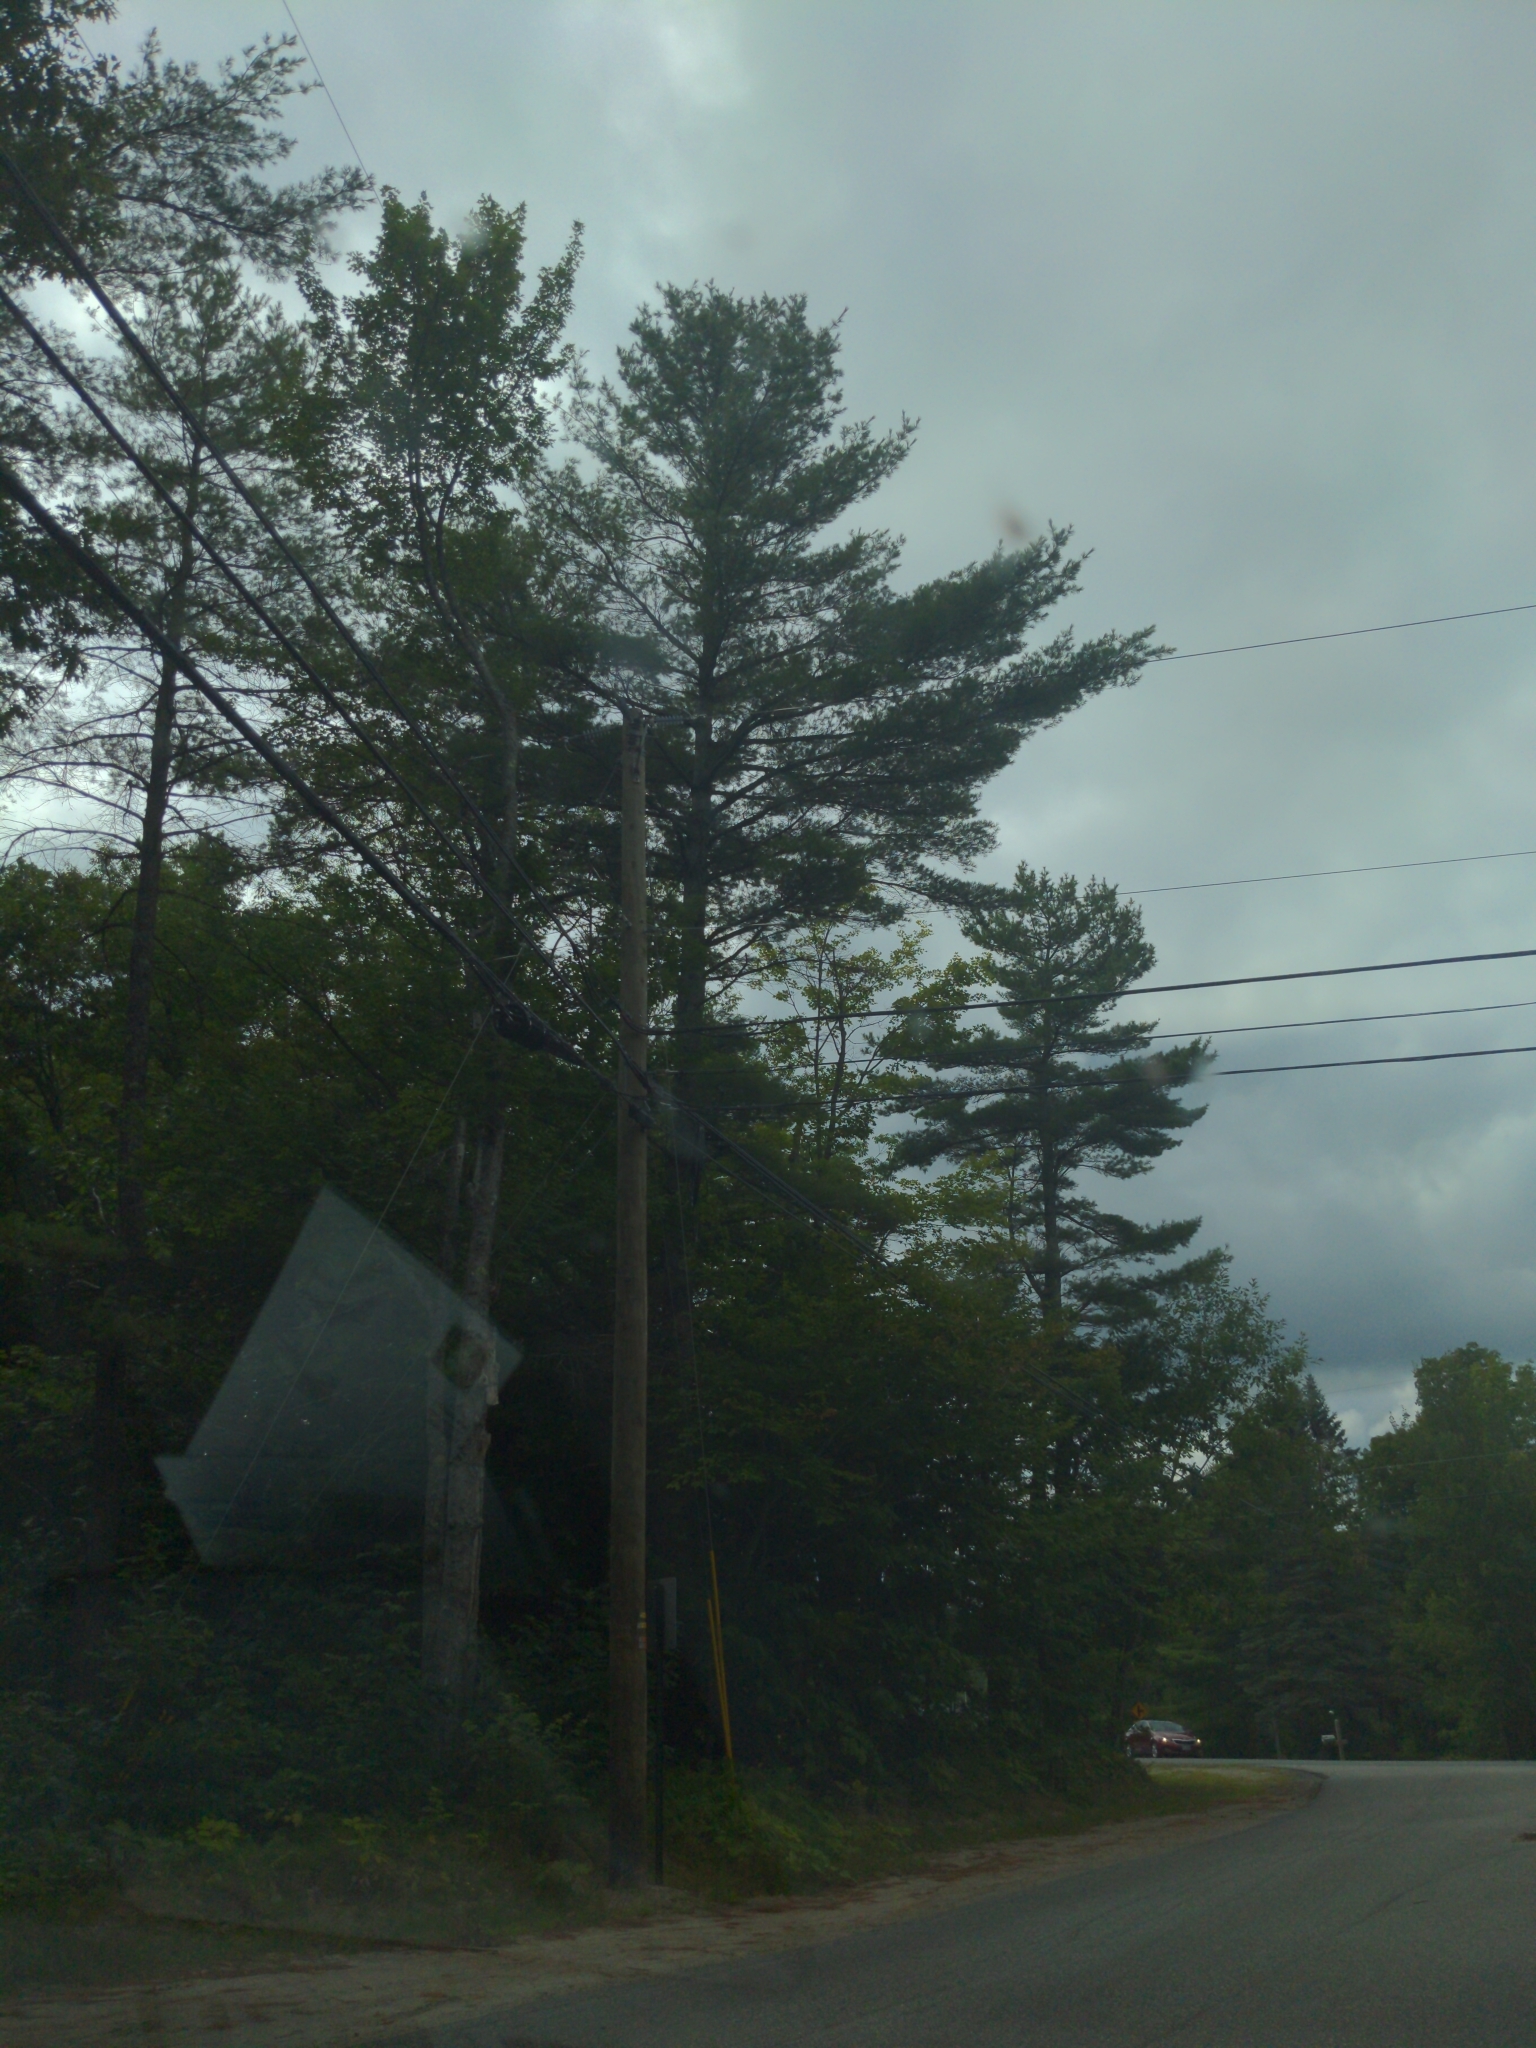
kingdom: Plantae
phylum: Tracheophyta
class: Pinopsida
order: Pinales
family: Pinaceae
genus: Pinus
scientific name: Pinus strobus
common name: Weymouth pine
